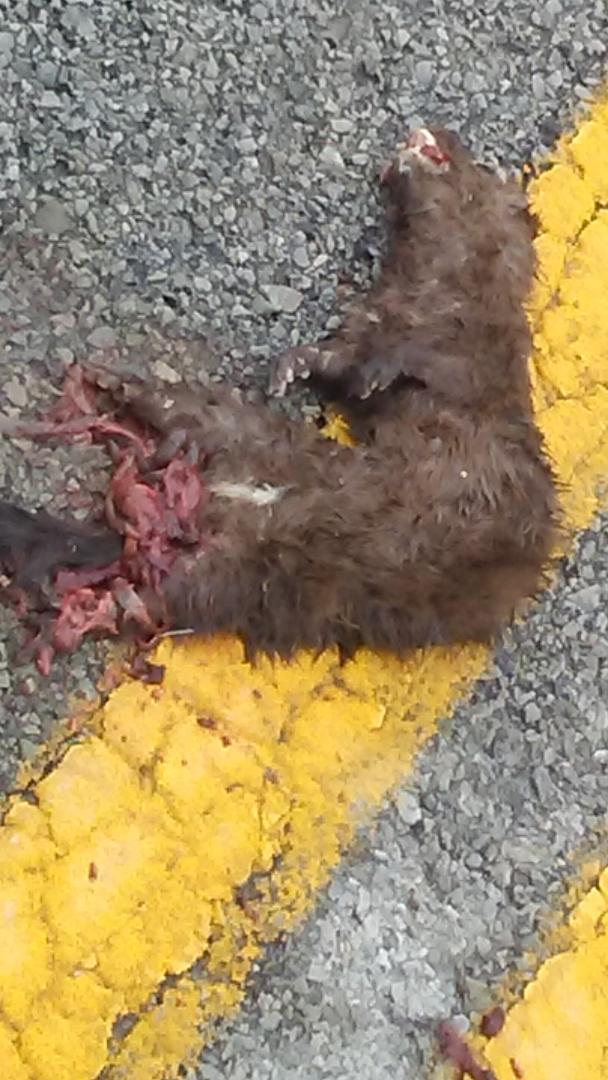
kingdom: Animalia
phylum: Chordata
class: Mammalia
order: Carnivora
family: Mustelidae
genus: Mustela
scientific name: Mustela
